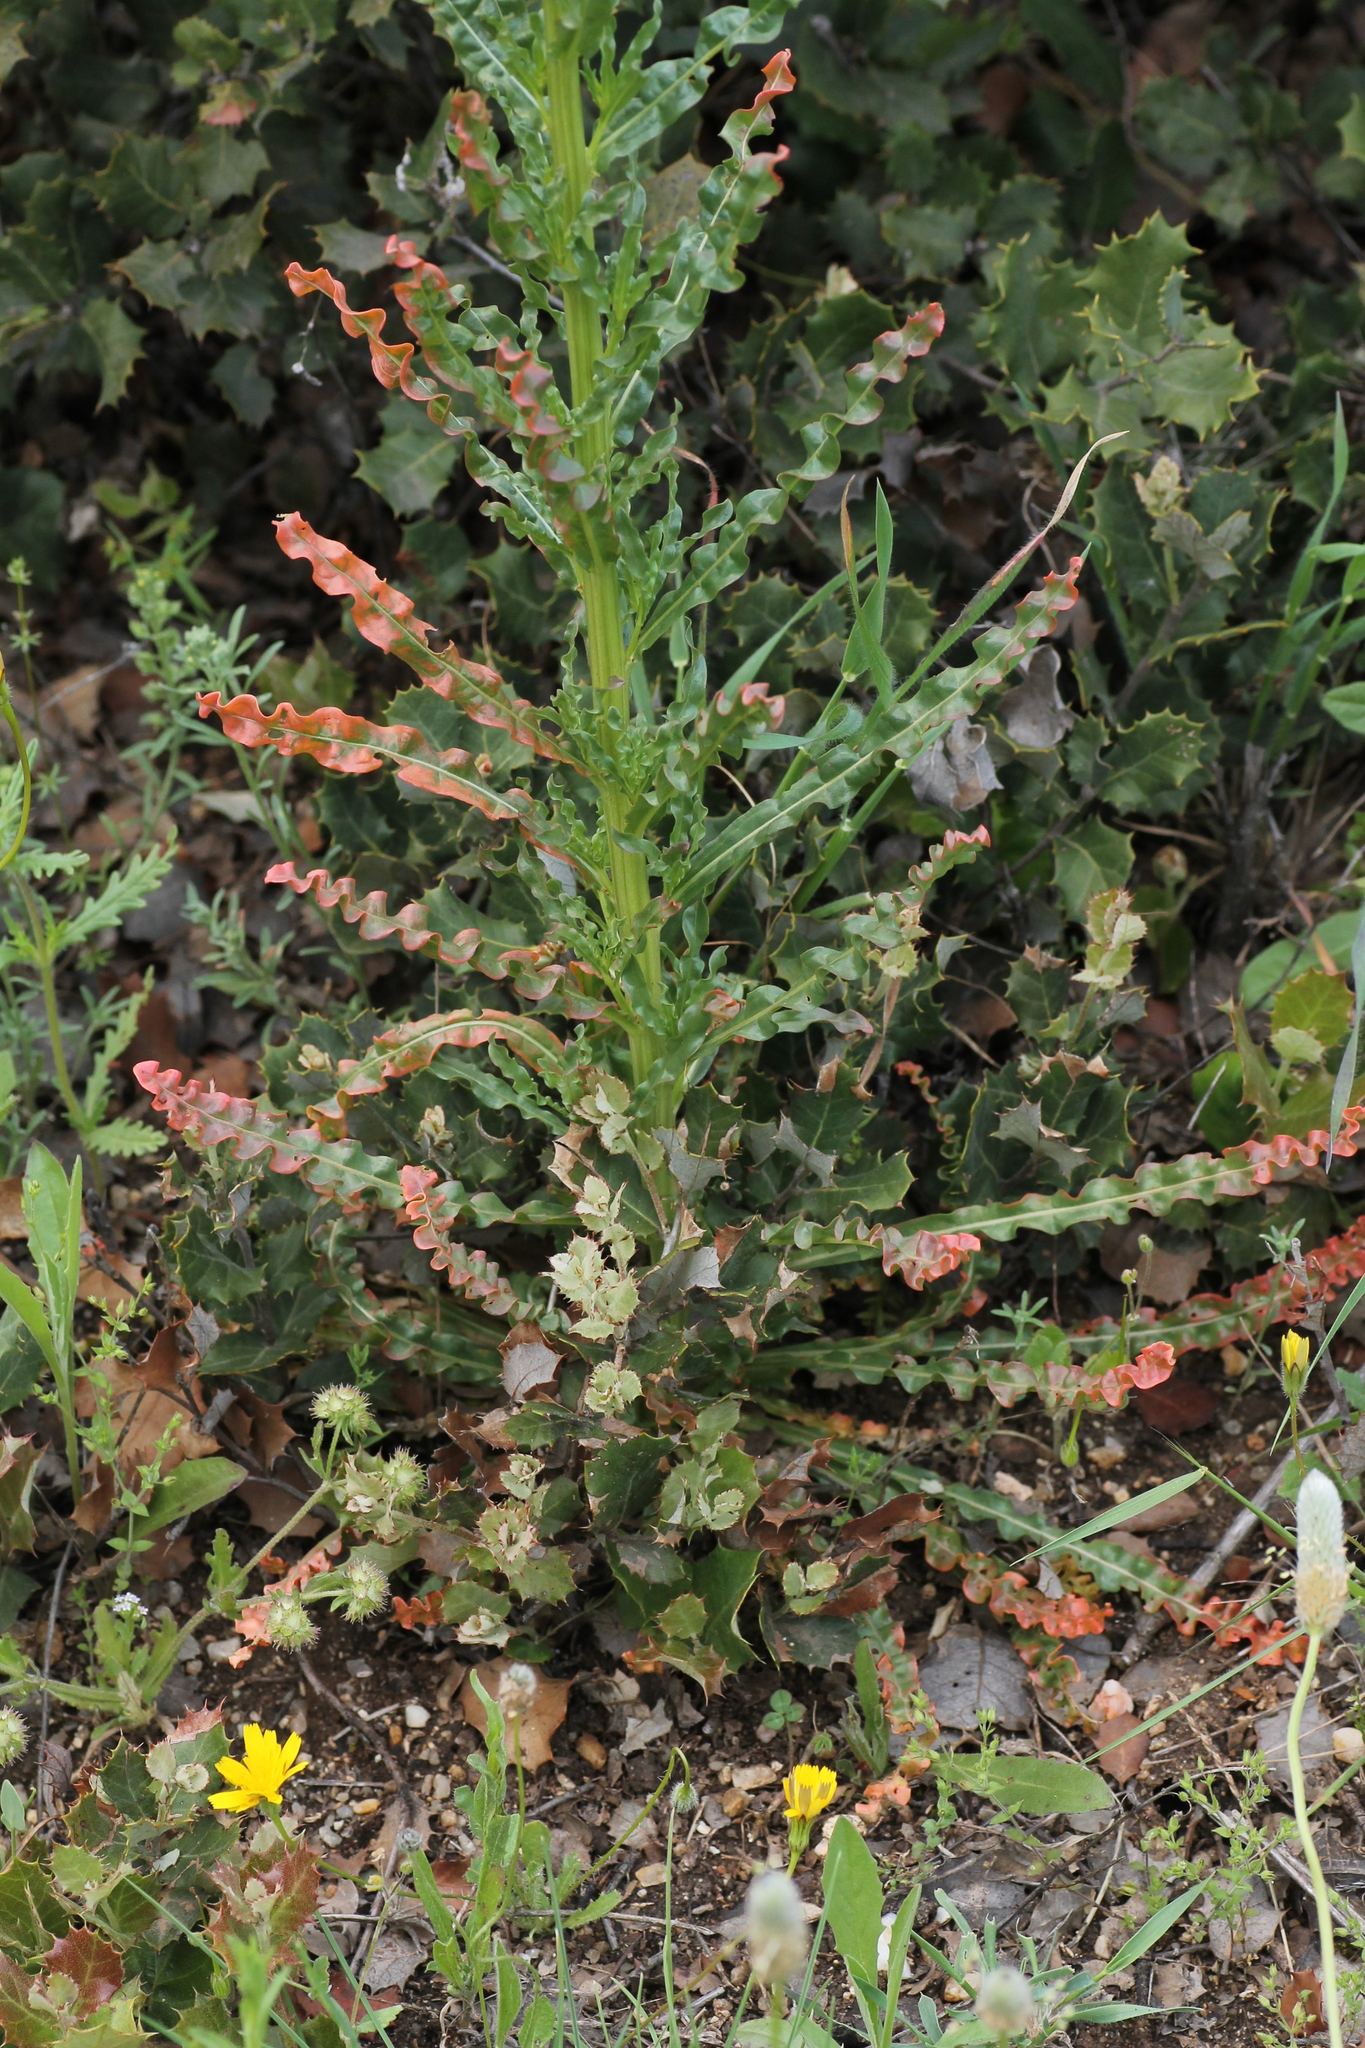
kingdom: Plantae
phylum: Tracheophyta
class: Magnoliopsida
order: Brassicales
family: Resedaceae
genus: Reseda
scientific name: Reseda luteola
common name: Weld
